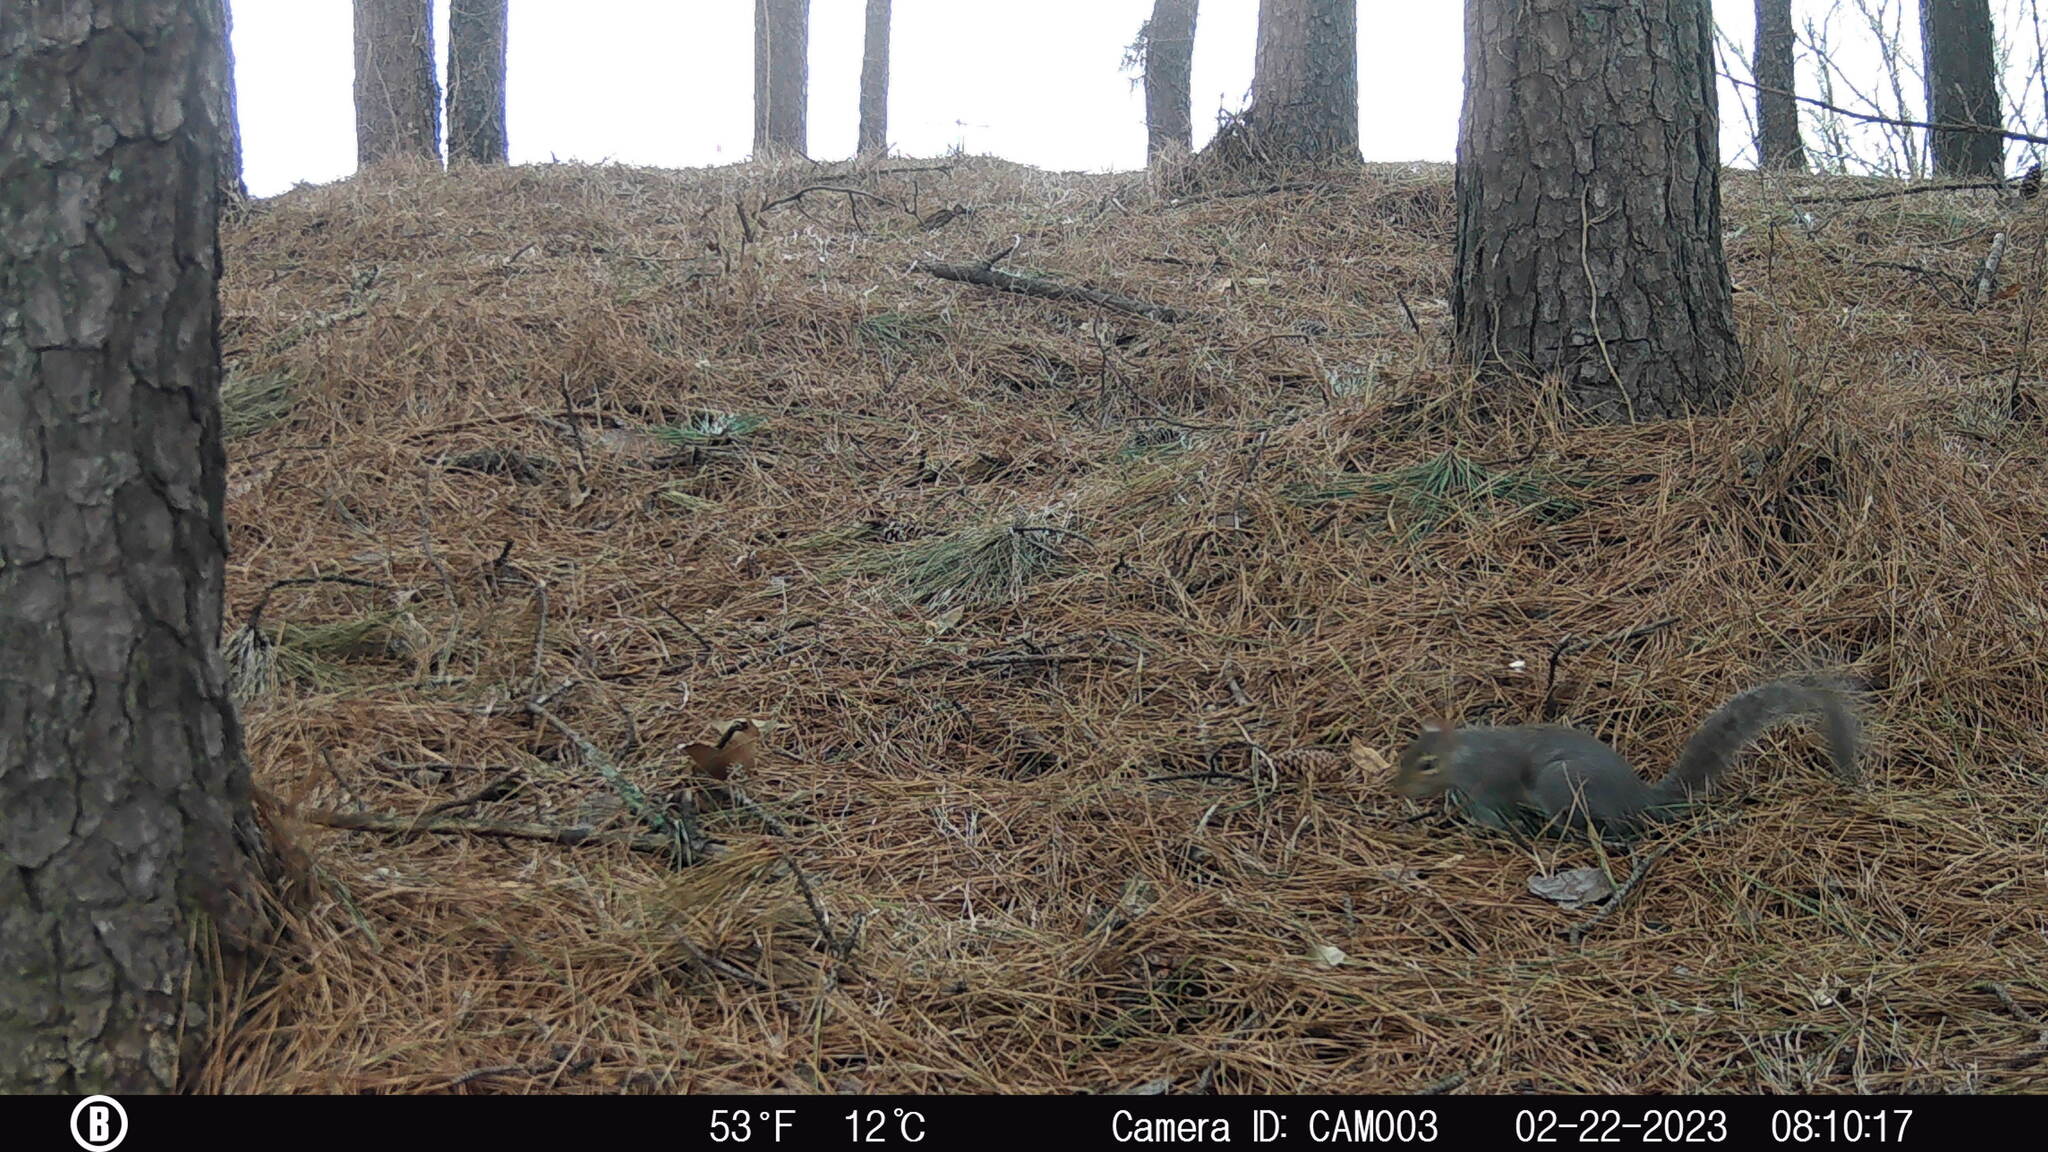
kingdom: Animalia
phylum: Chordata
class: Mammalia
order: Rodentia
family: Sciuridae
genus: Sciurus
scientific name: Sciurus carolinensis
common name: Eastern gray squirrel
